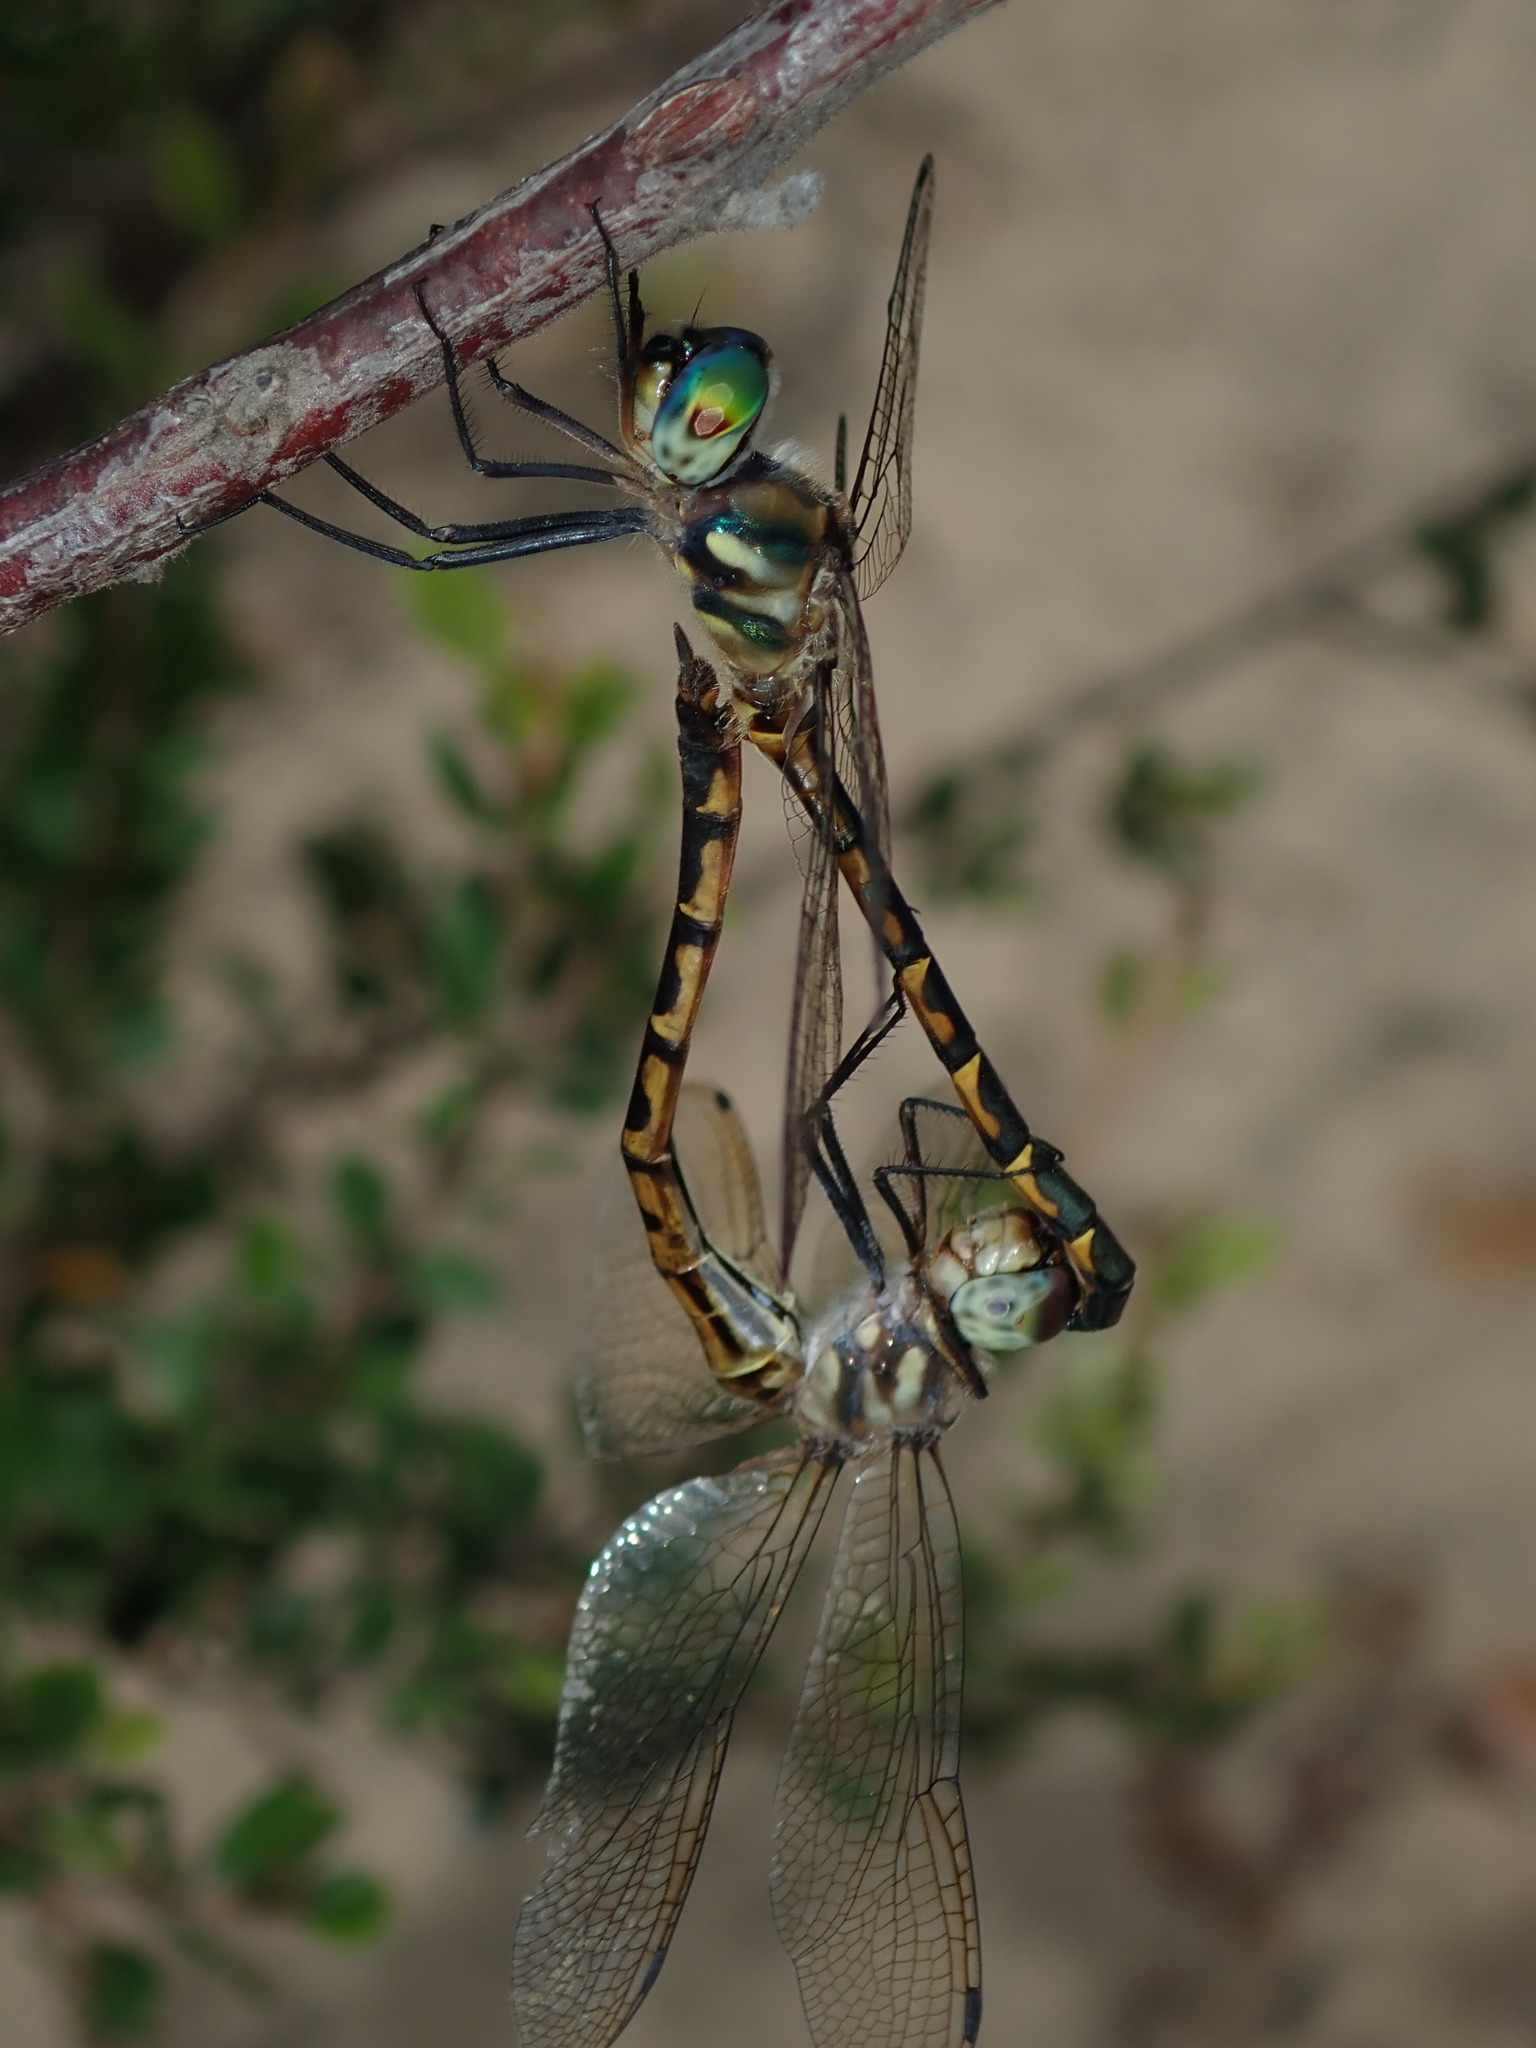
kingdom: Animalia
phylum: Arthropoda
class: Insecta
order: Odonata
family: Corduliidae
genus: Hemicordulia
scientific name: Hemicordulia australiae
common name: Sentry dragonfly
